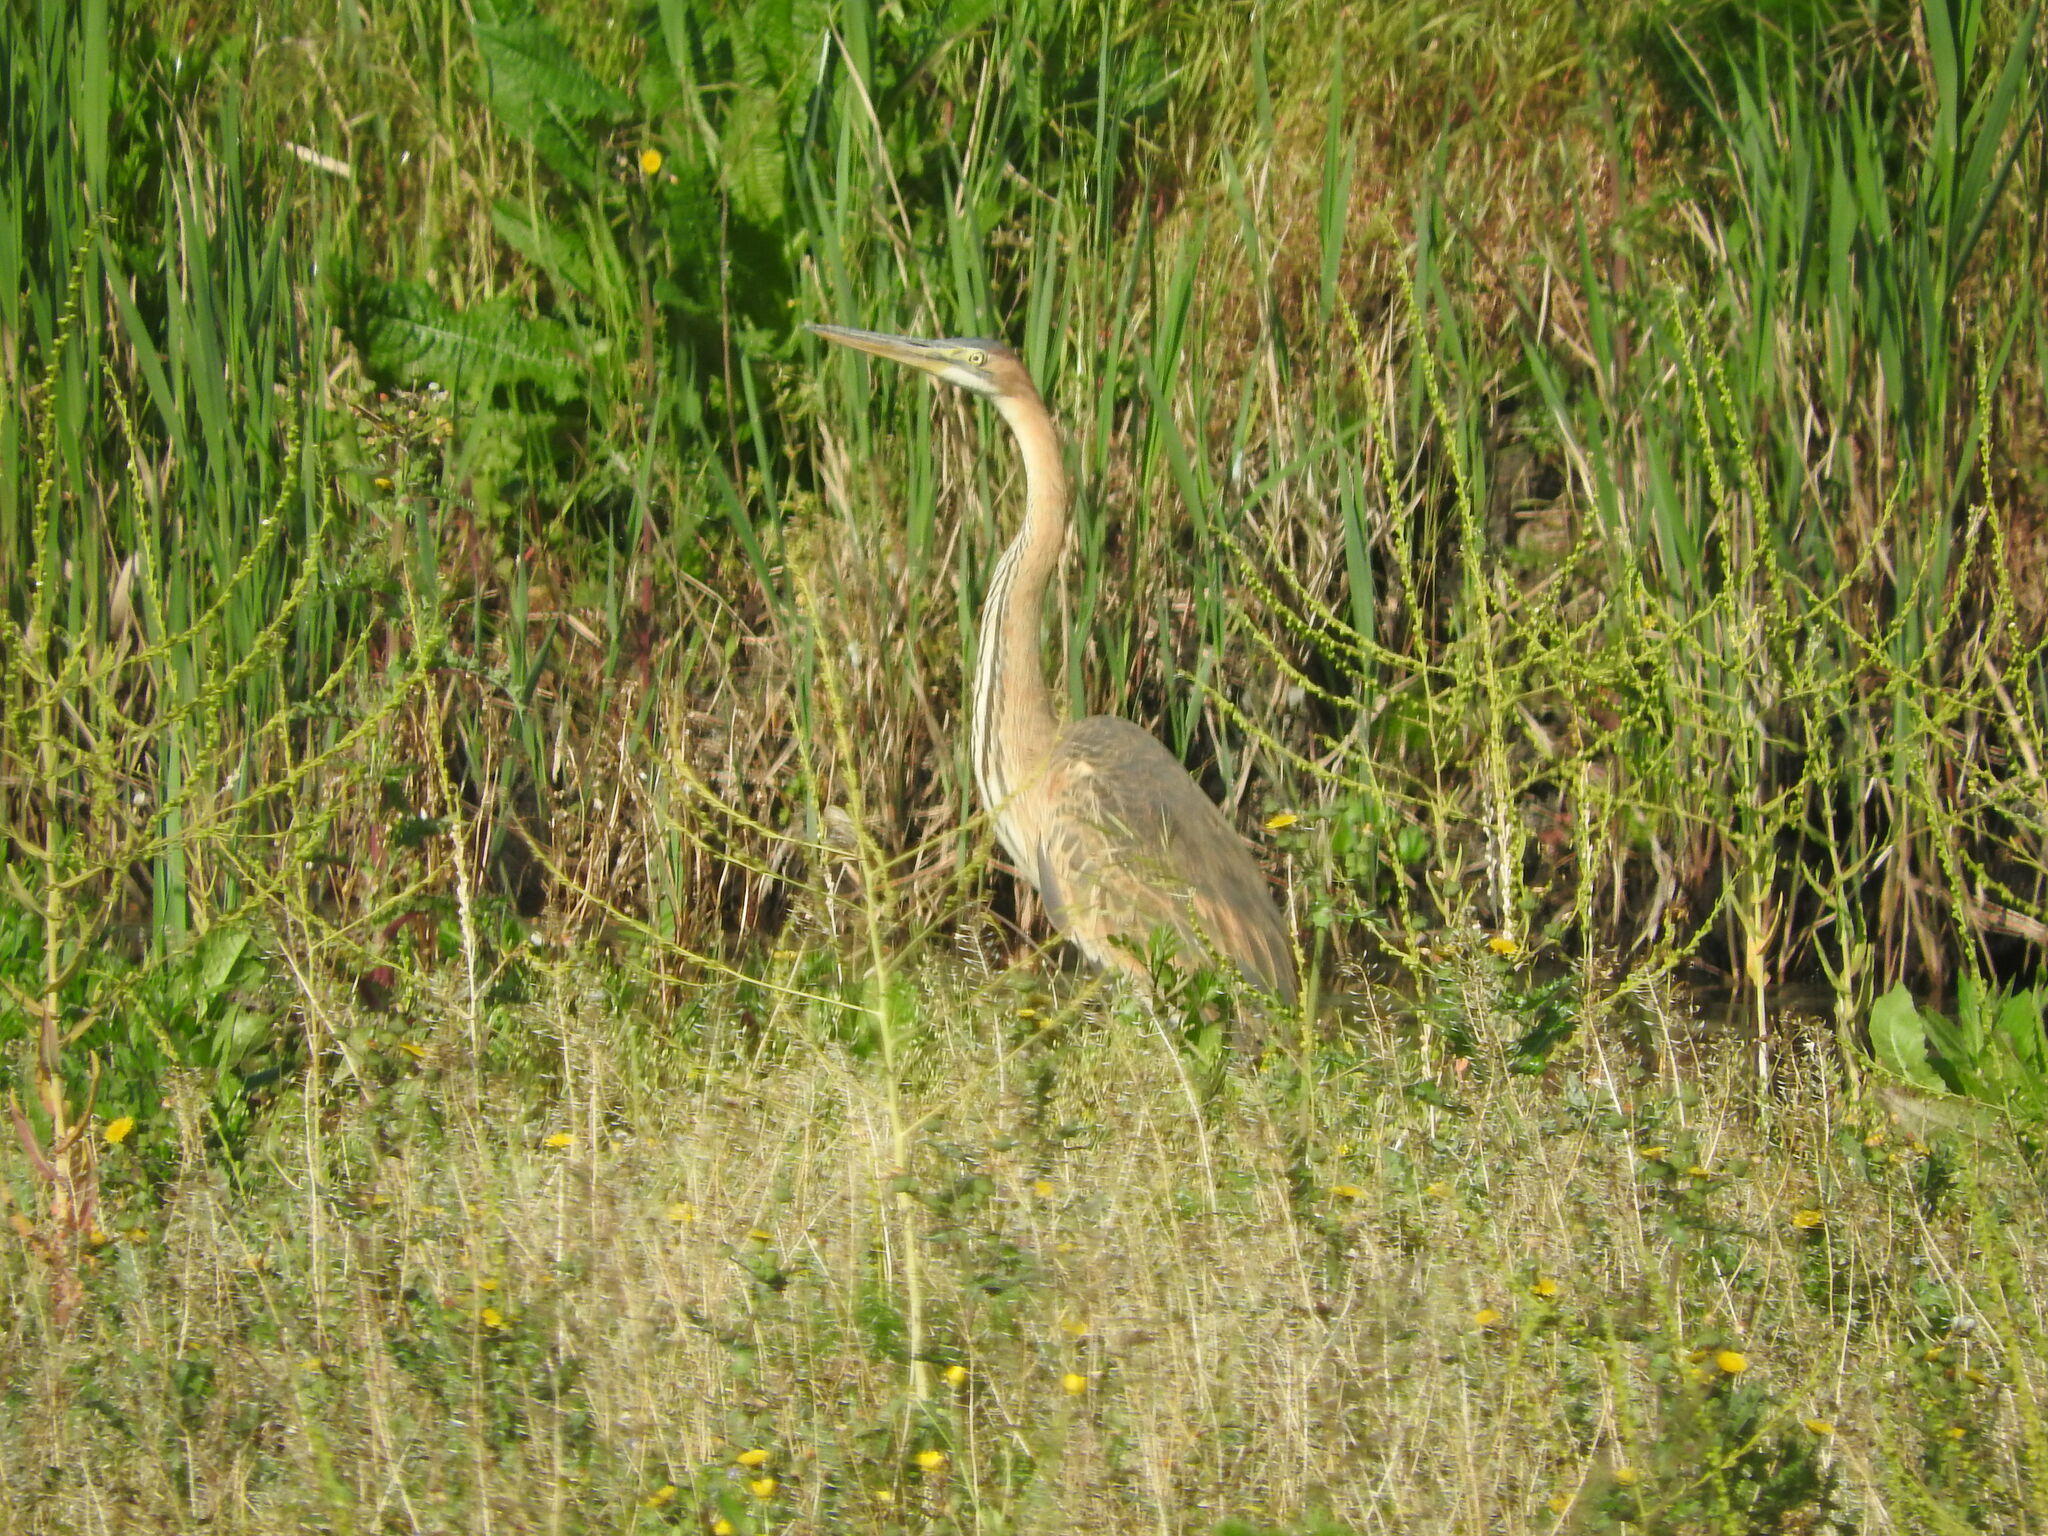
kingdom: Animalia
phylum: Chordata
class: Aves
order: Pelecaniformes
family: Ardeidae
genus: Ardea
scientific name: Ardea purpurea
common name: Purple heron
